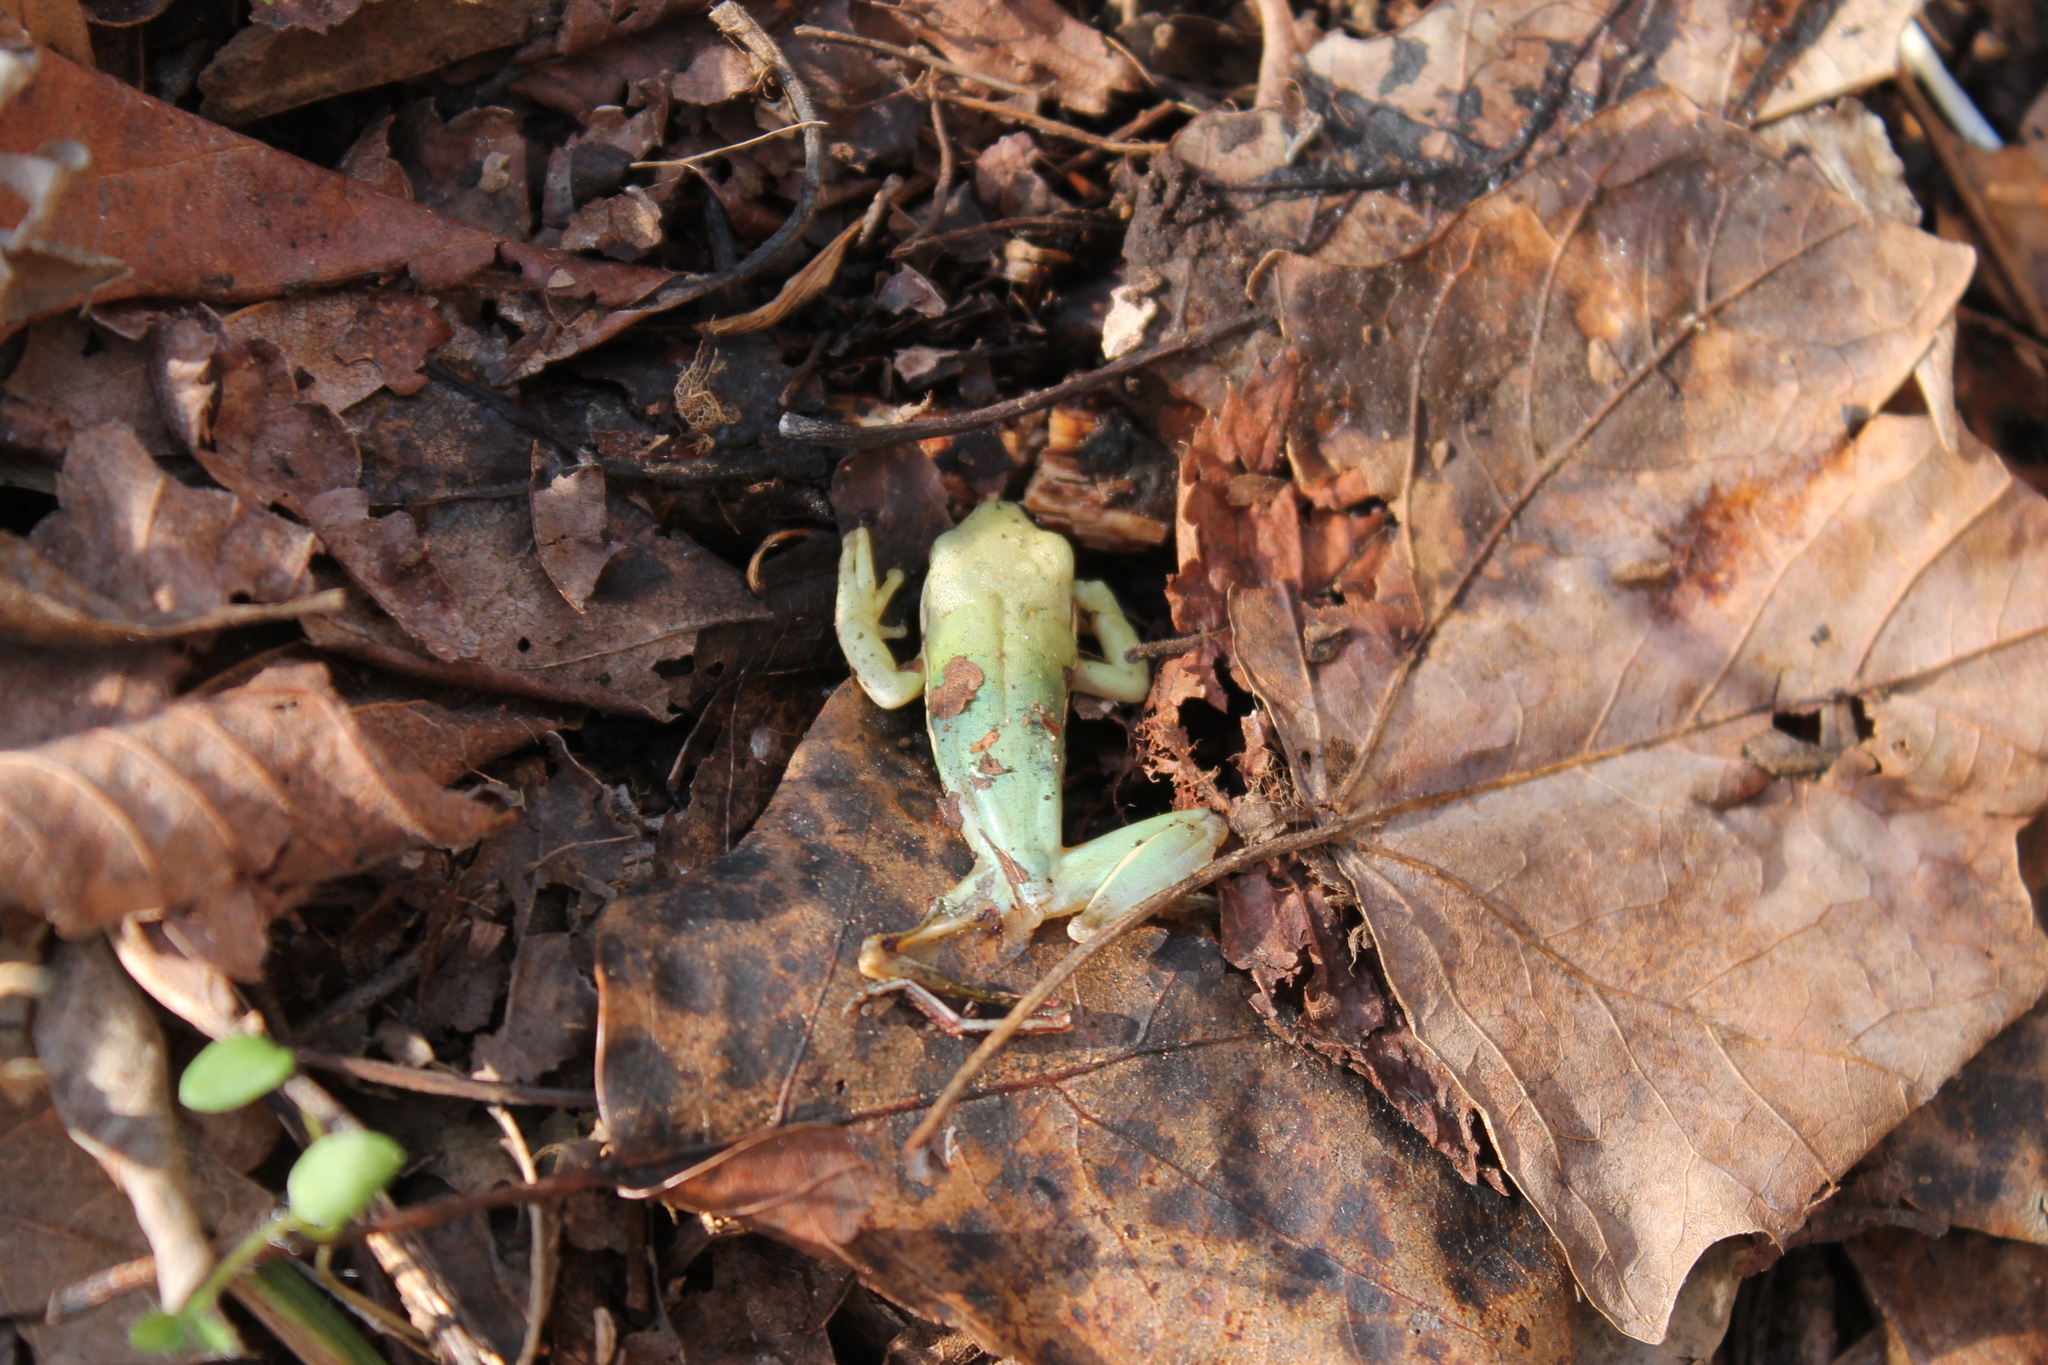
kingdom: Animalia
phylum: Chordata
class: Amphibia
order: Anura
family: Hylidae
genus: Dryophytes
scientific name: Dryophytes cinereus
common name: Green treefrog
